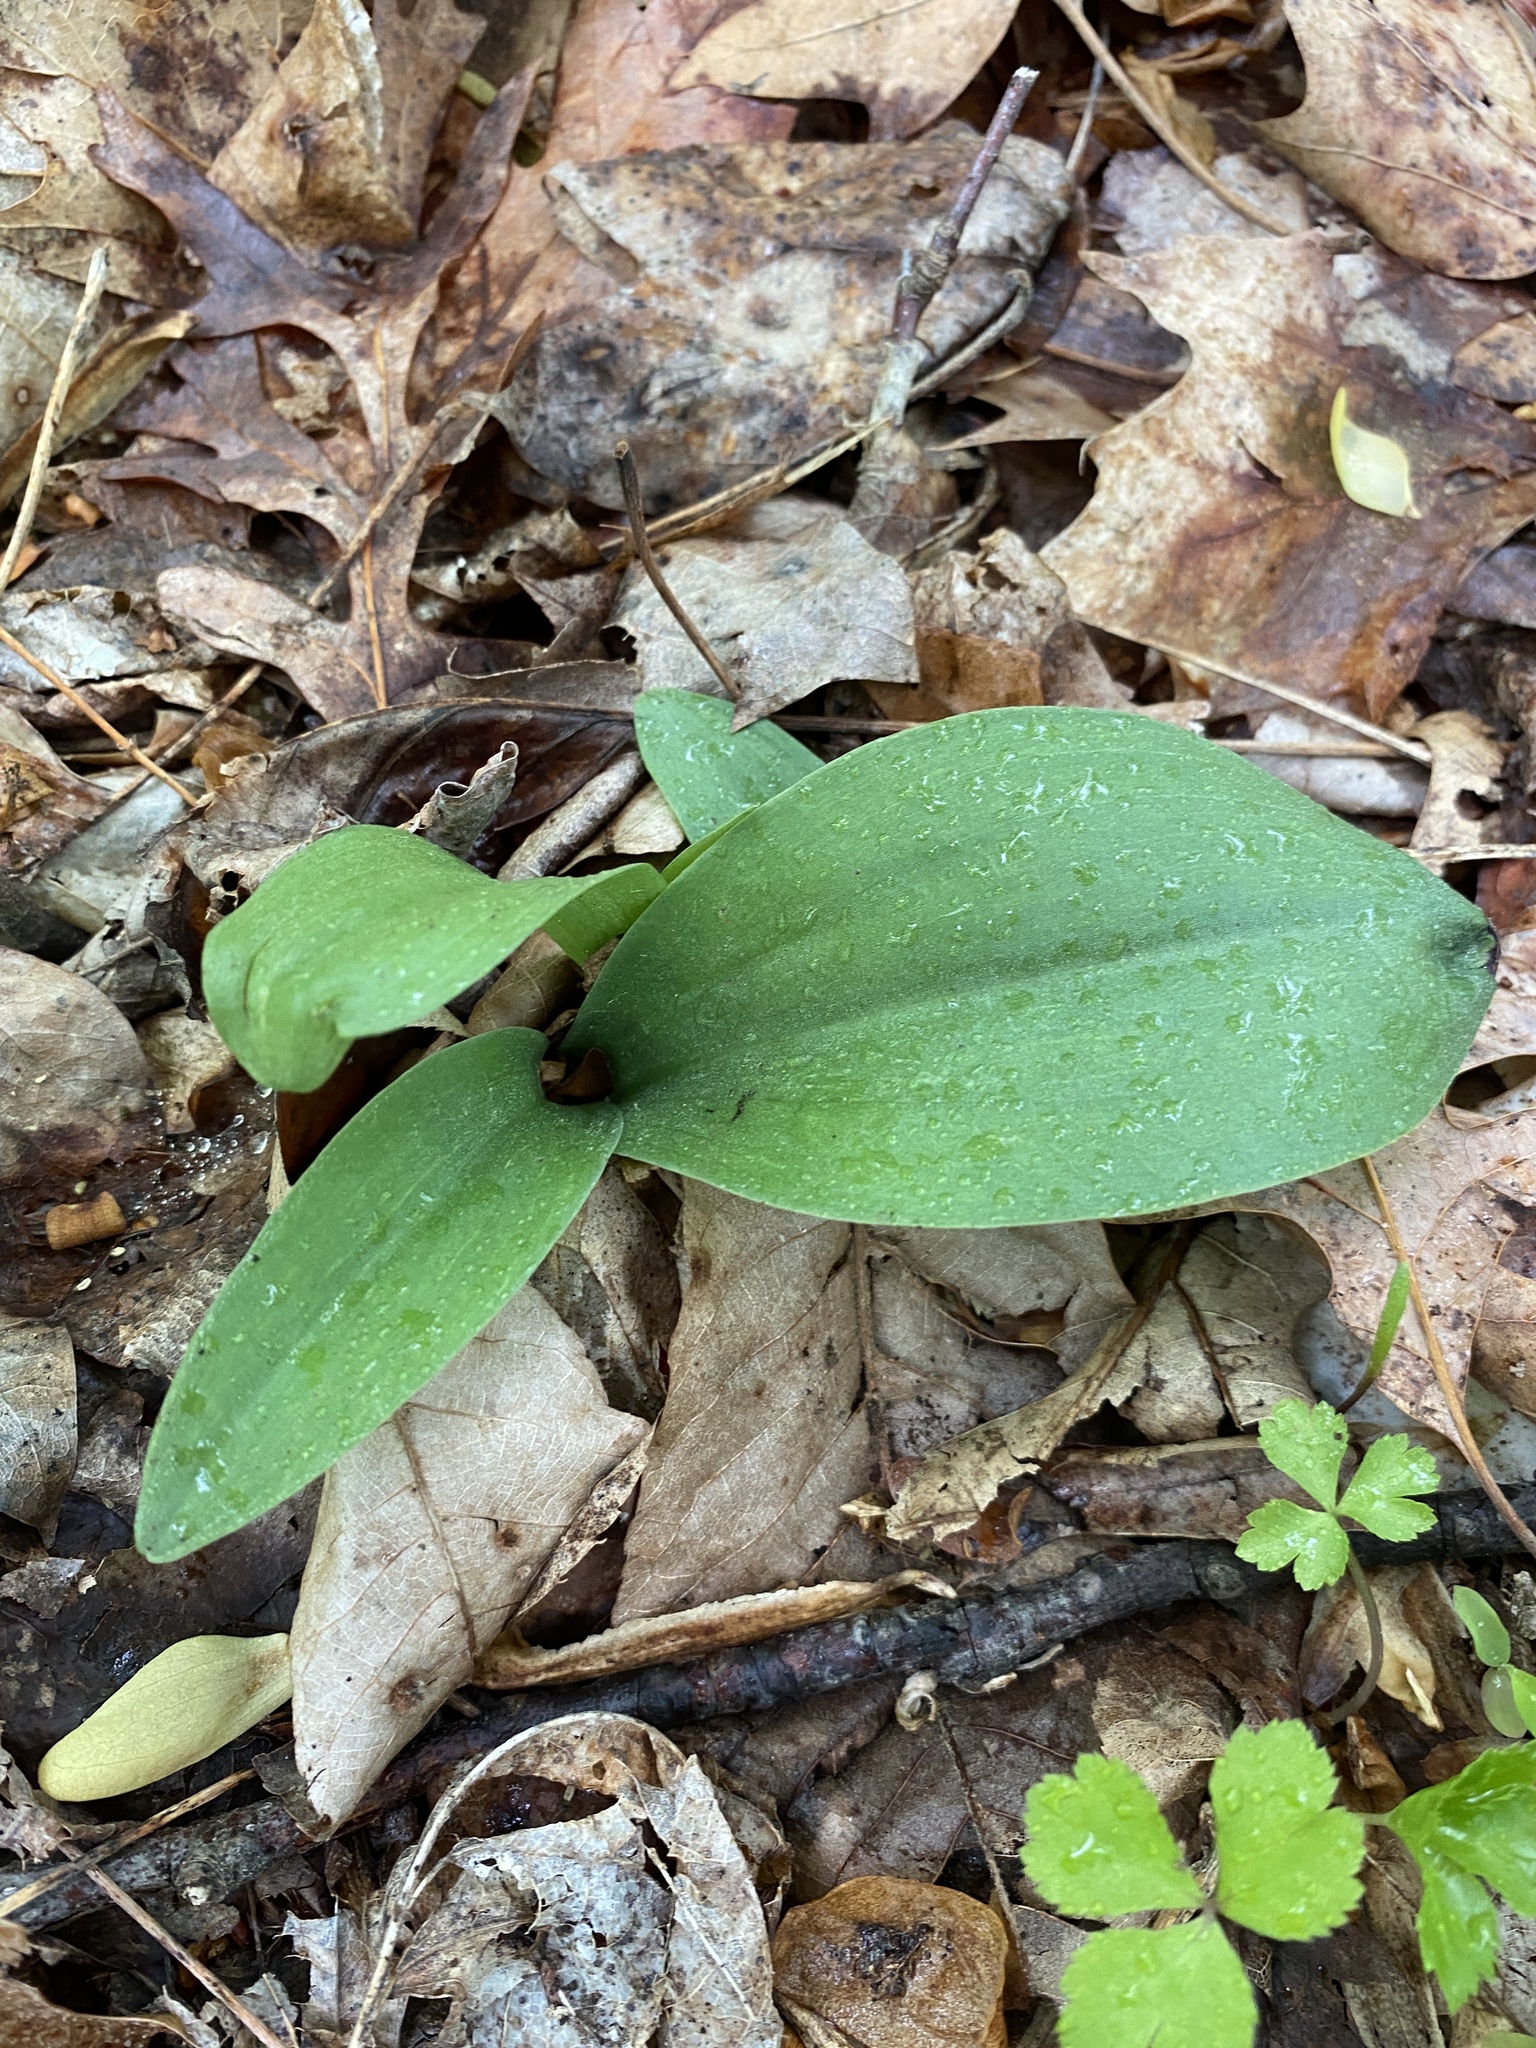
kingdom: Plantae
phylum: Tracheophyta
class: Liliopsida
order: Asparagales
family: Orchidaceae
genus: Galearis
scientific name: Galearis spectabilis
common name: Purple-hooded orchis
